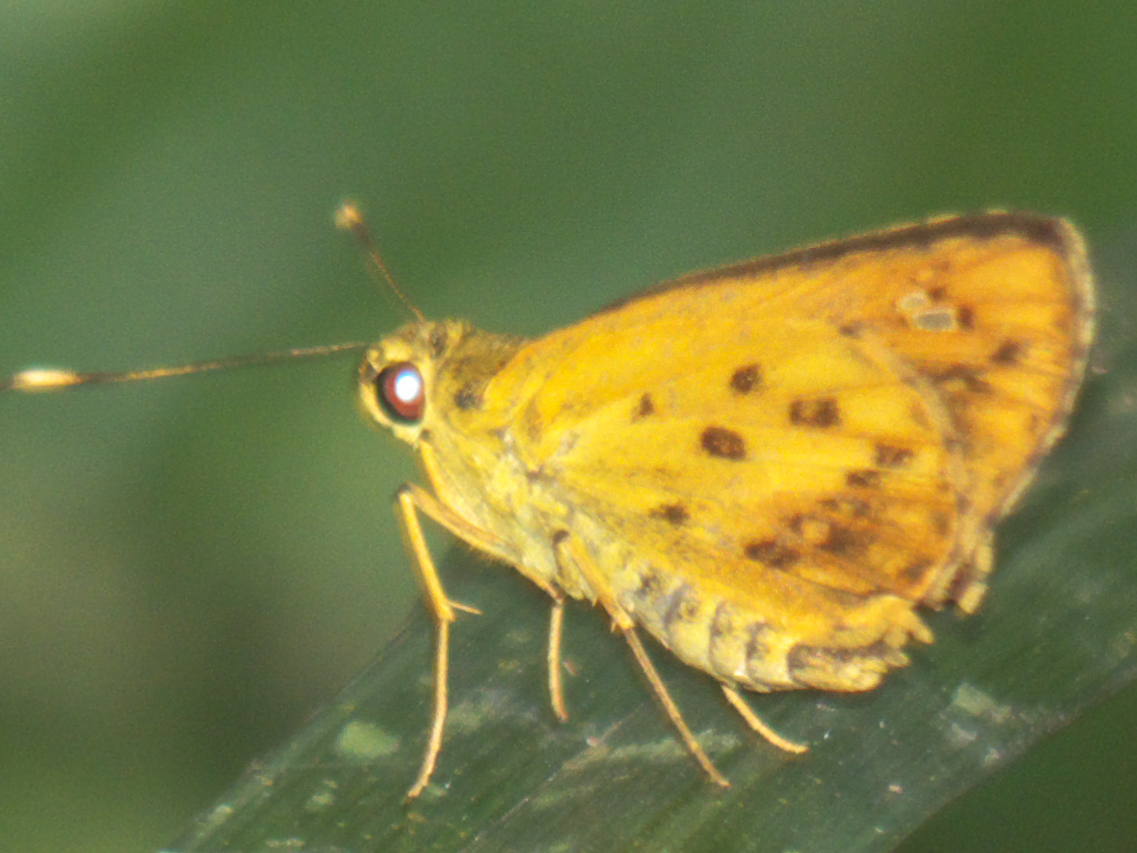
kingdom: Animalia
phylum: Arthropoda
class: Insecta
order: Lepidoptera
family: Hesperiidae
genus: Salanoemia
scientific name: Salanoemia tavoyana
